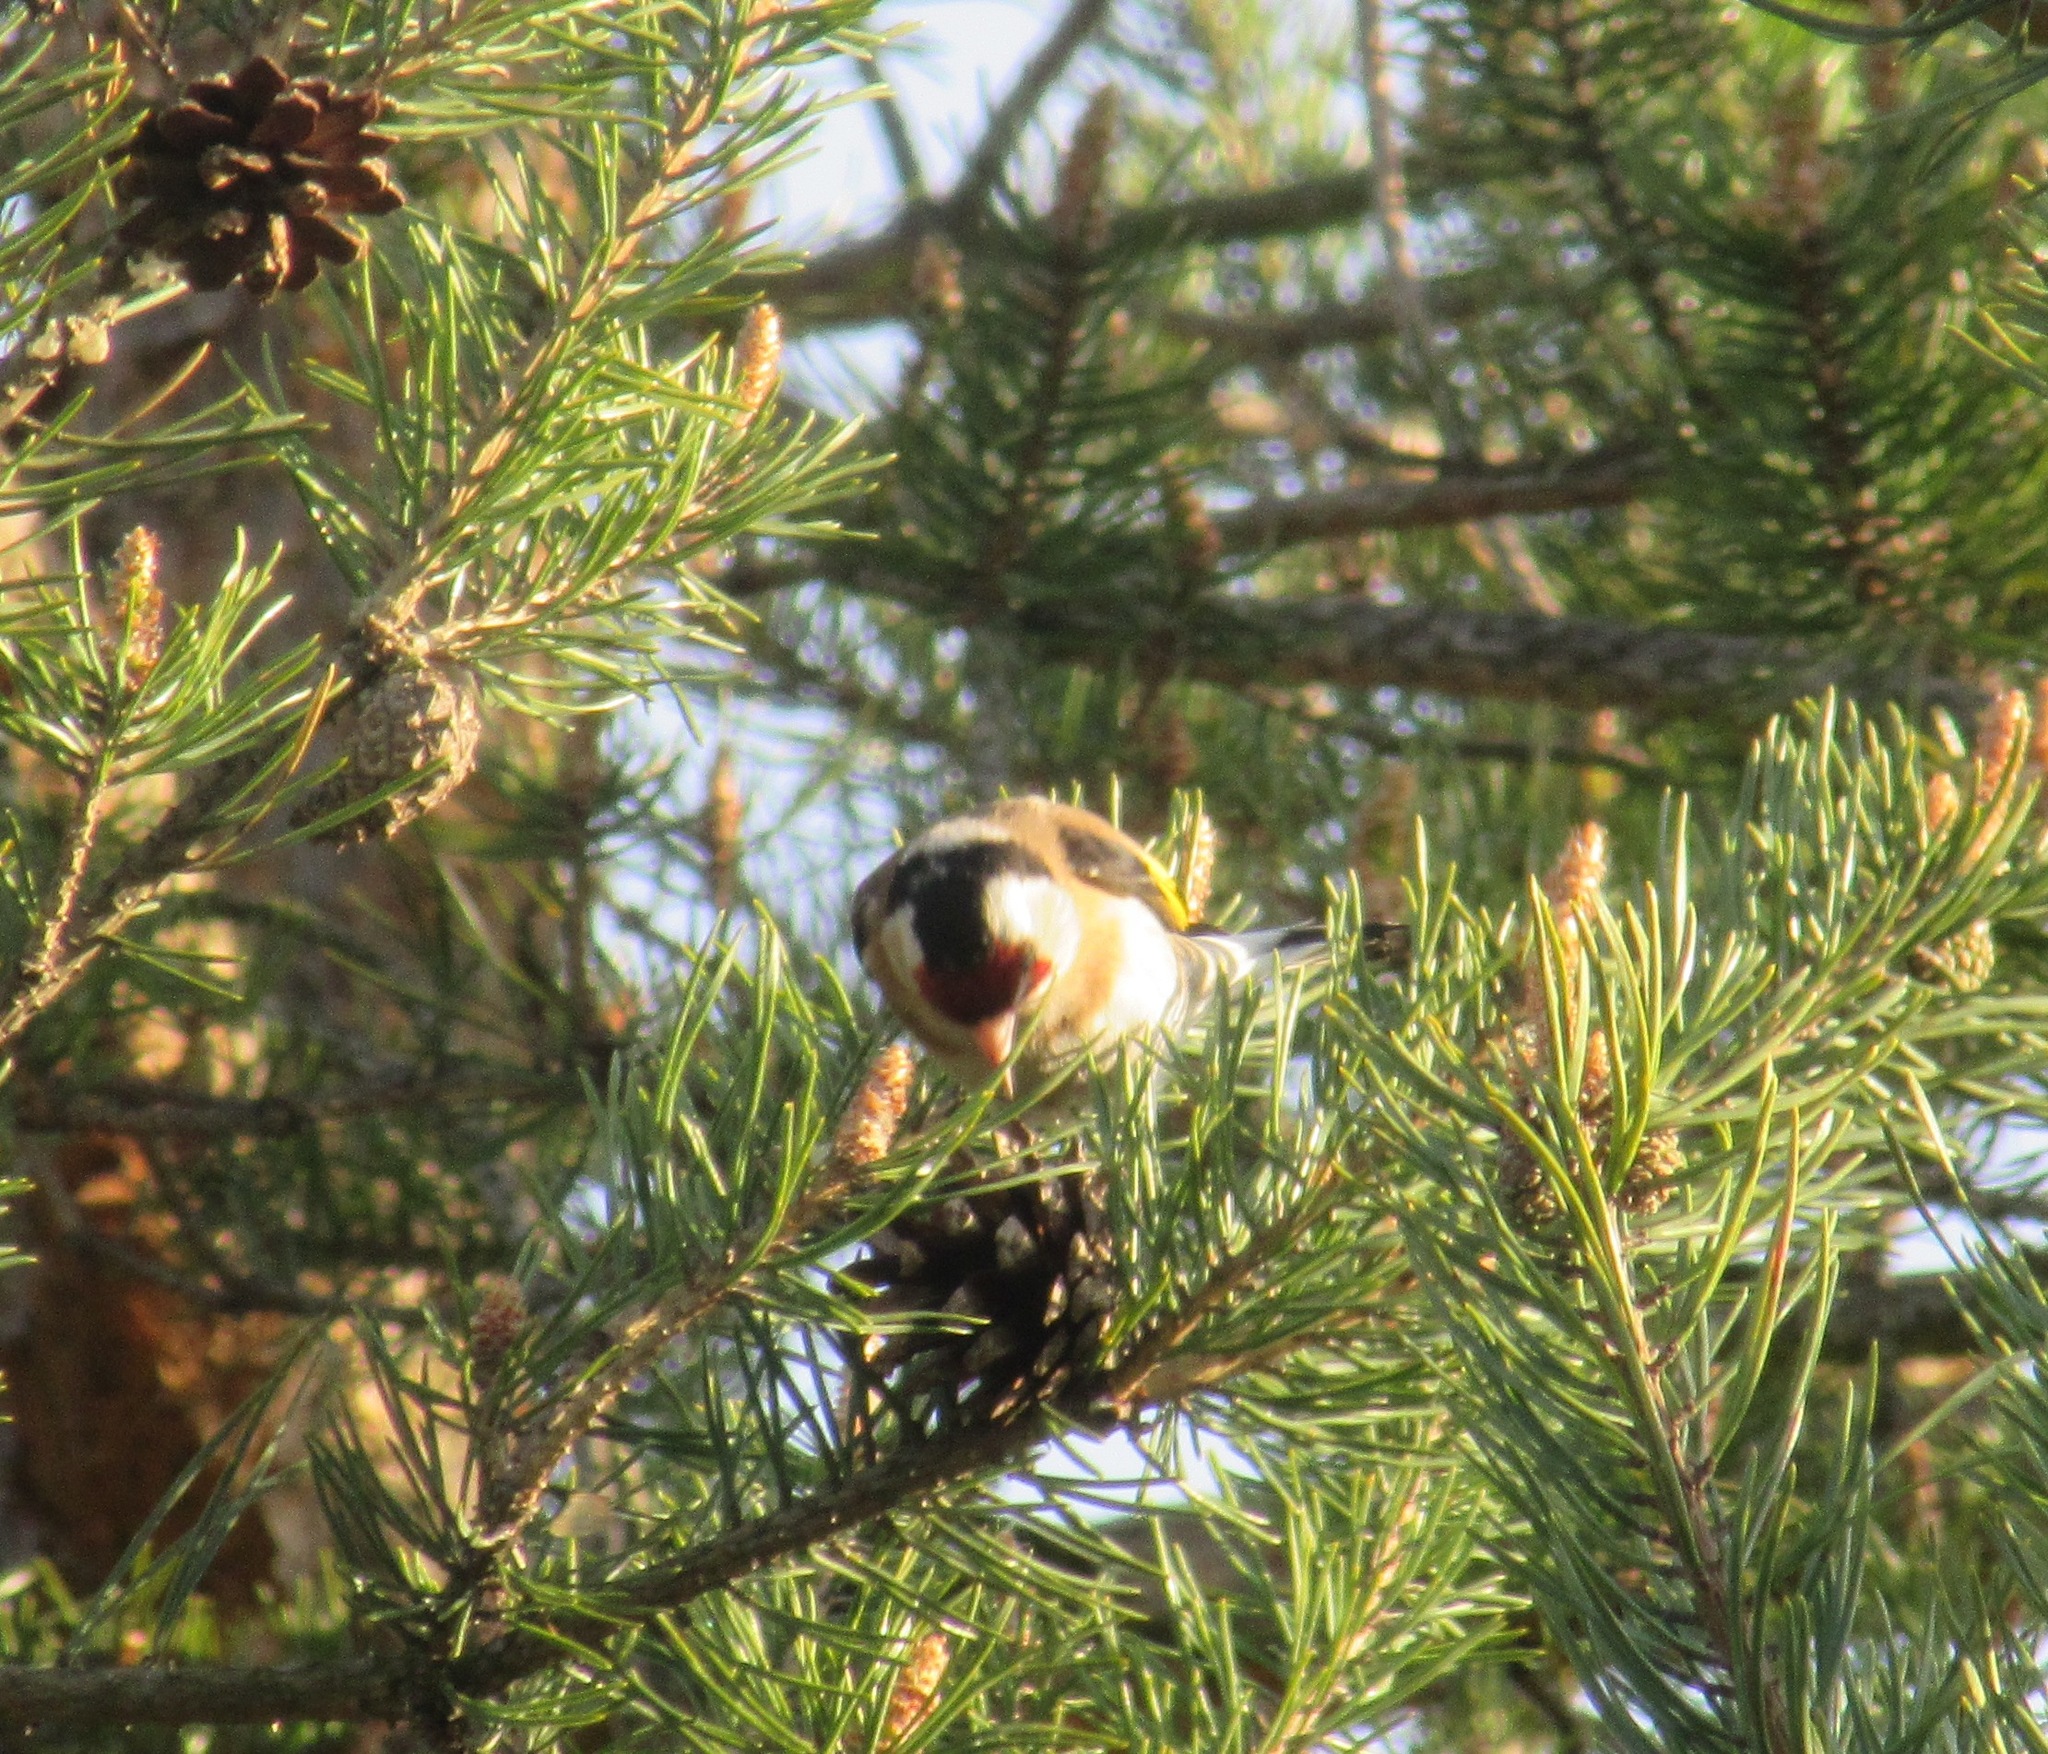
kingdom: Animalia
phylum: Chordata
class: Aves
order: Passeriformes
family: Fringillidae
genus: Carduelis
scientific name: Carduelis carduelis
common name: European goldfinch
